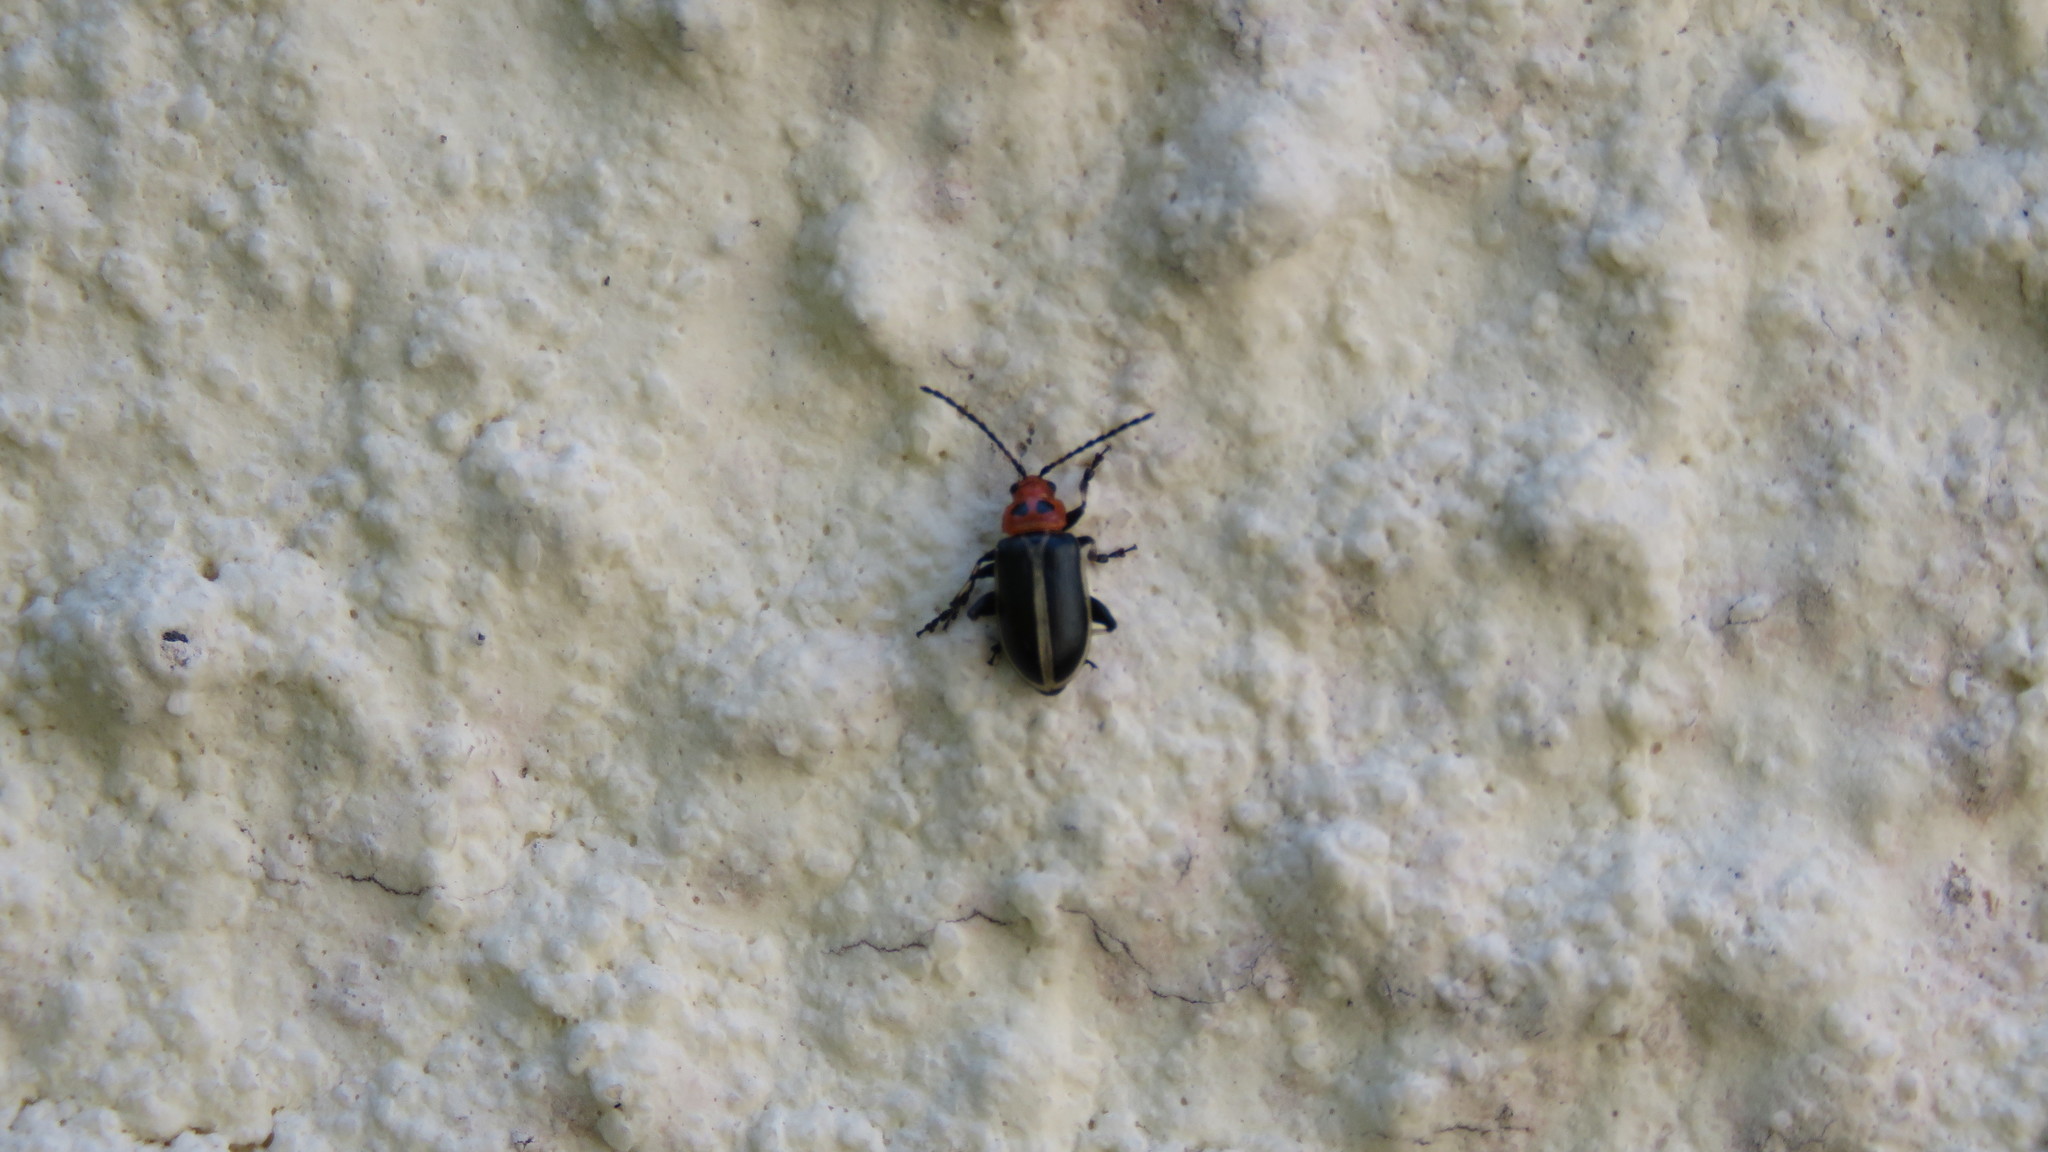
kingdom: Animalia
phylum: Arthropoda
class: Insecta
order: Coleoptera
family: Chrysomelidae
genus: Caeporis
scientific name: Caeporis
